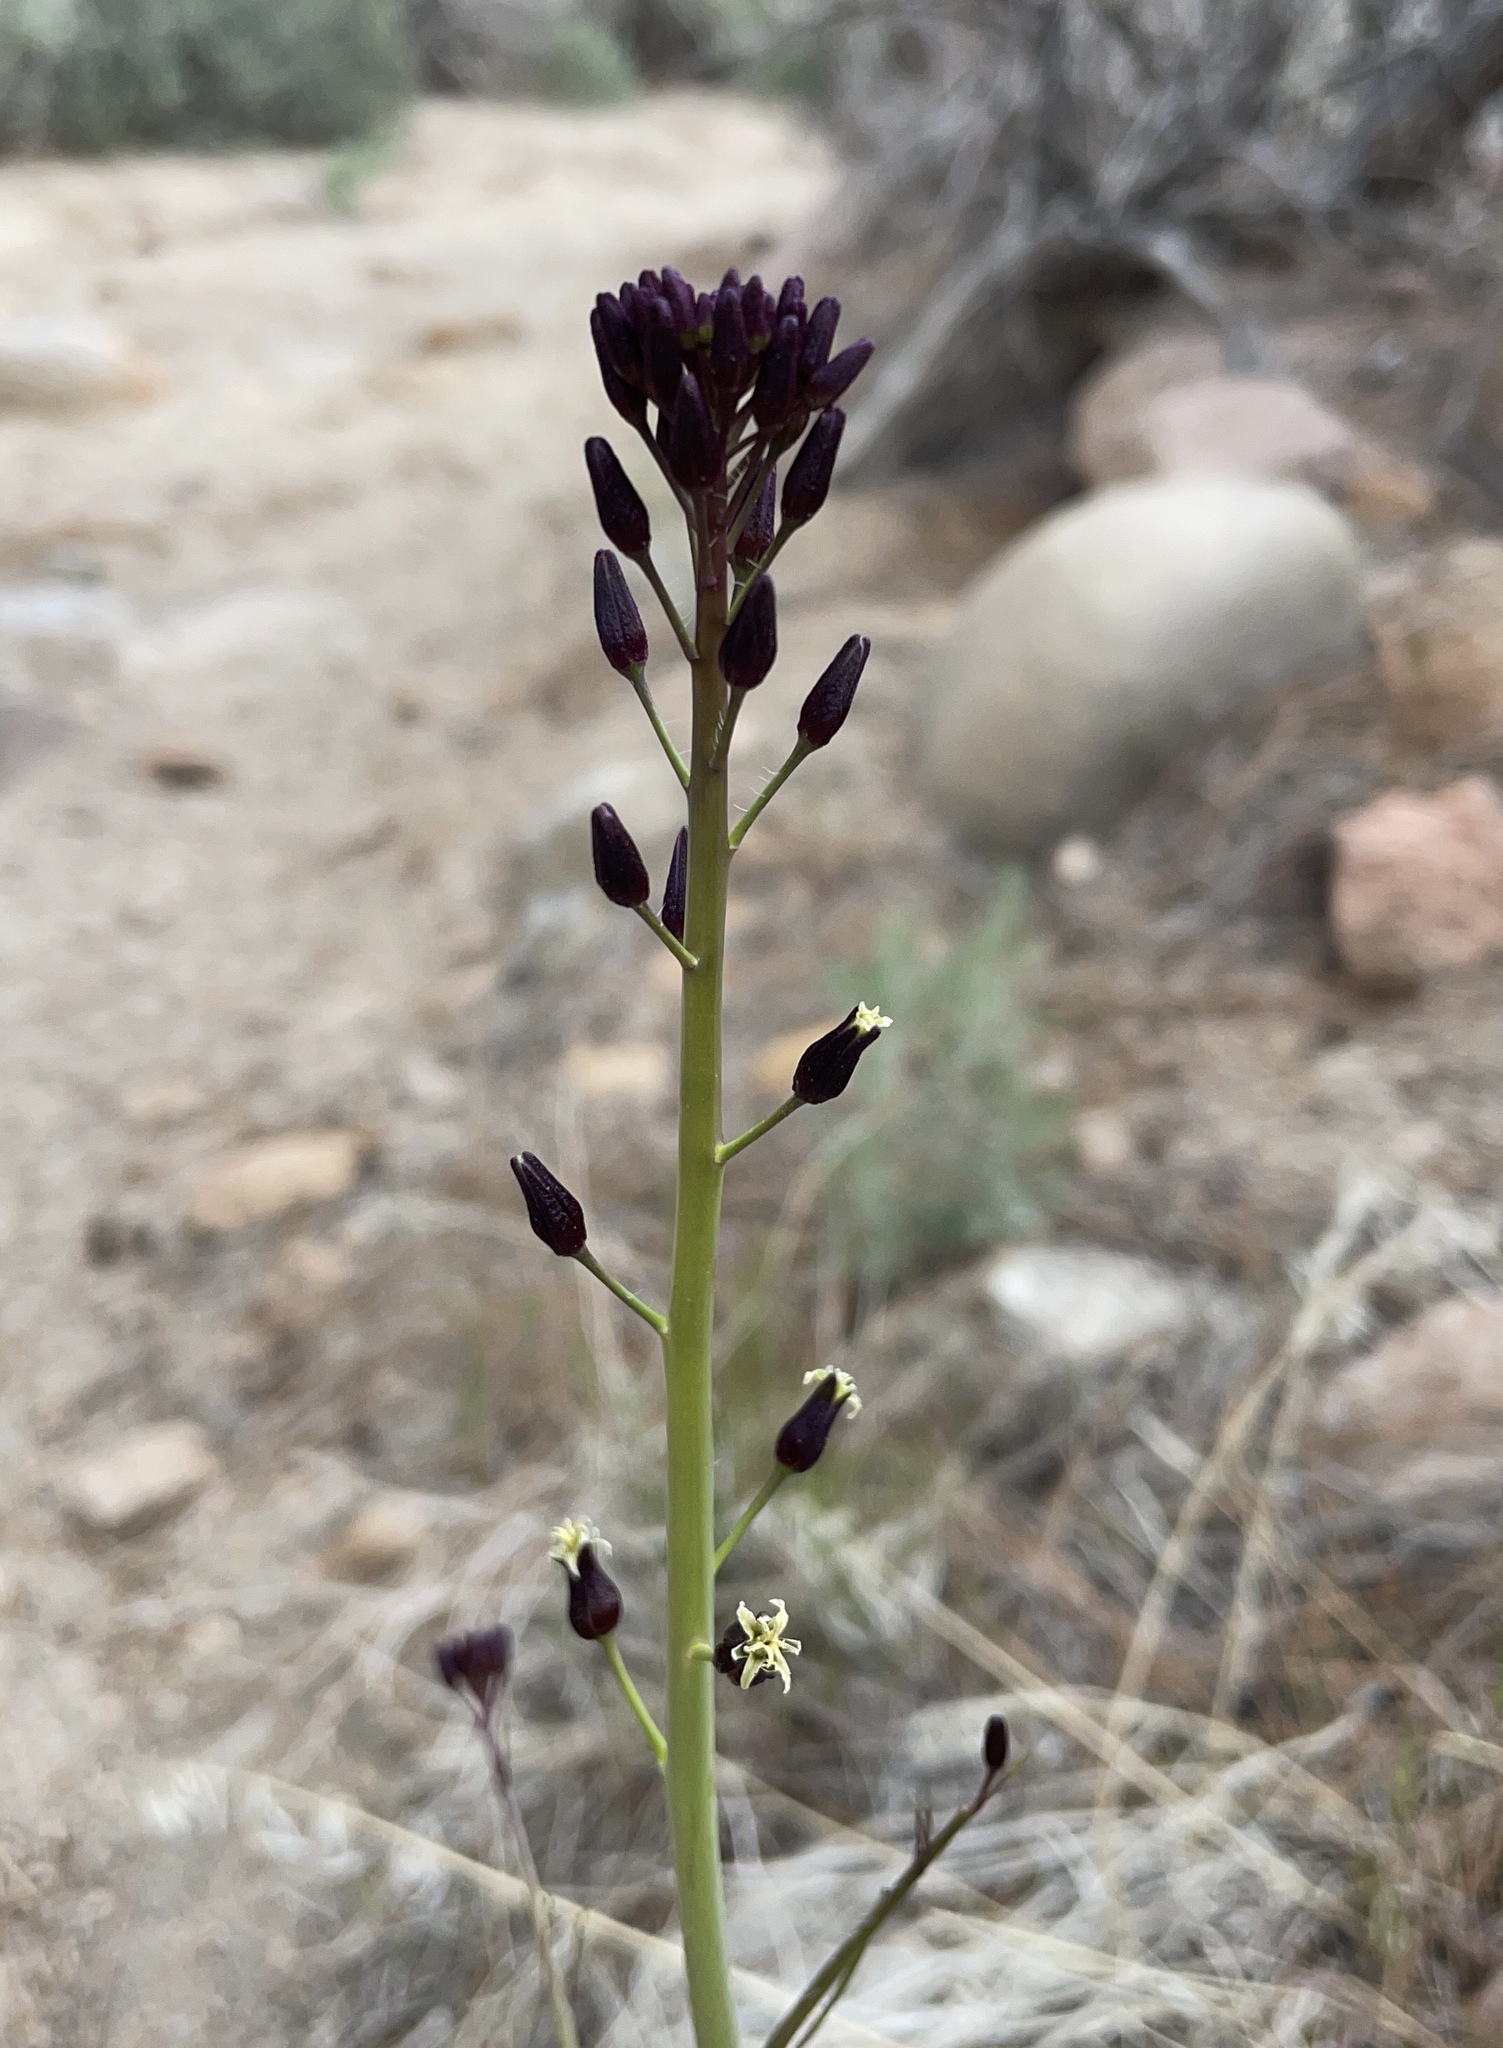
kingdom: Plantae
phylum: Tracheophyta
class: Magnoliopsida
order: Brassicales
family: Brassicaceae
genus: Streptanthus
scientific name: Streptanthus pilosus
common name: Chocolate drops
